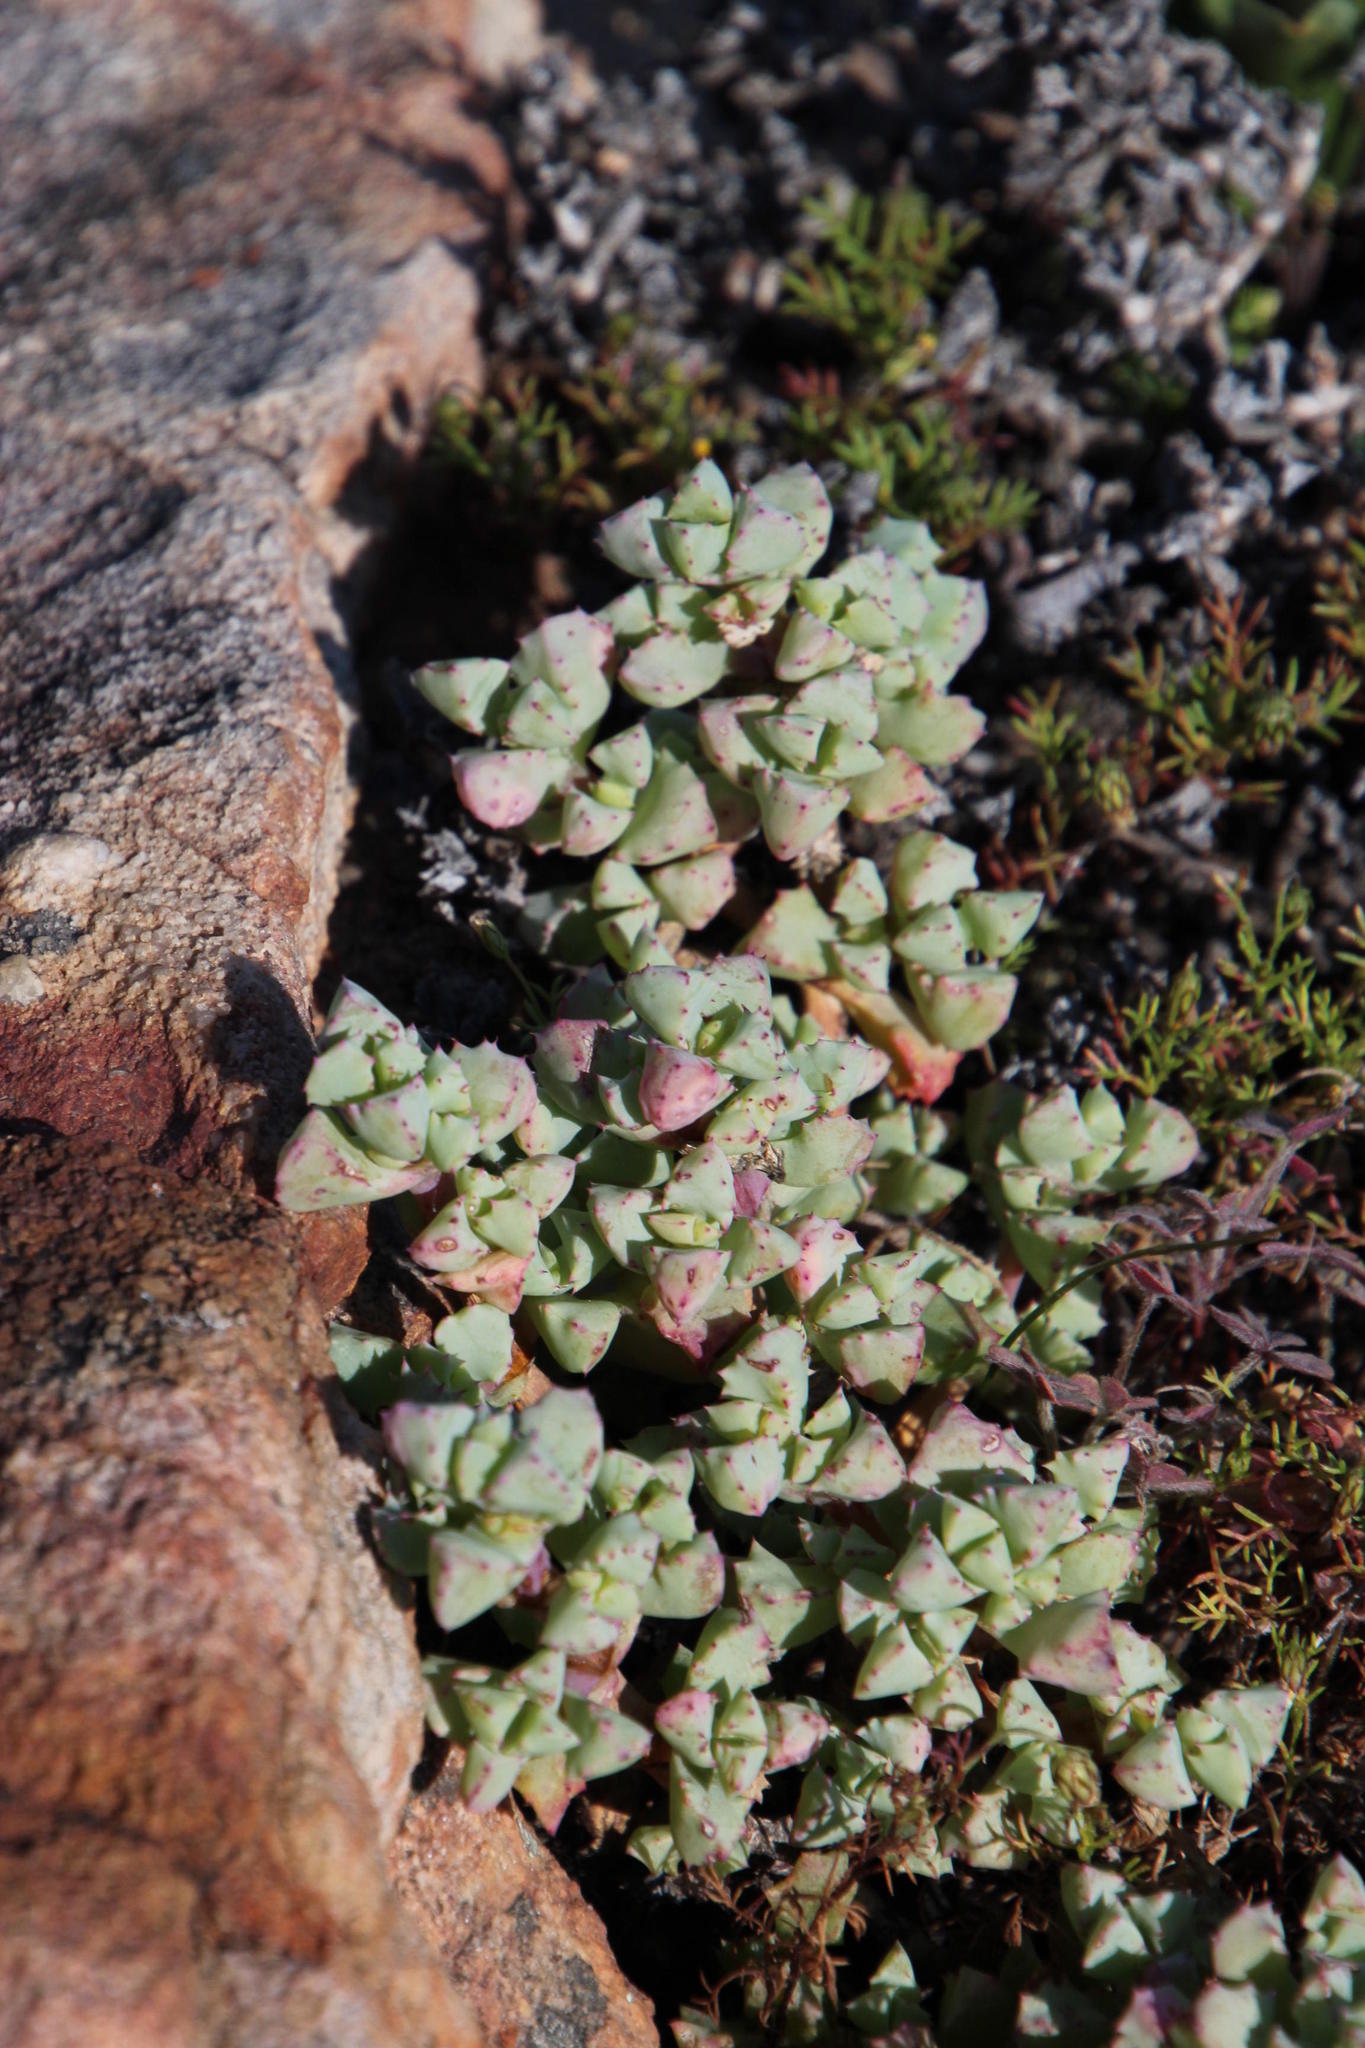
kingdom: Plantae
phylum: Tracheophyta
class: Magnoliopsida
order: Caryophyllales
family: Aizoaceae
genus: Oscularia
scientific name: Oscularia deltoides
